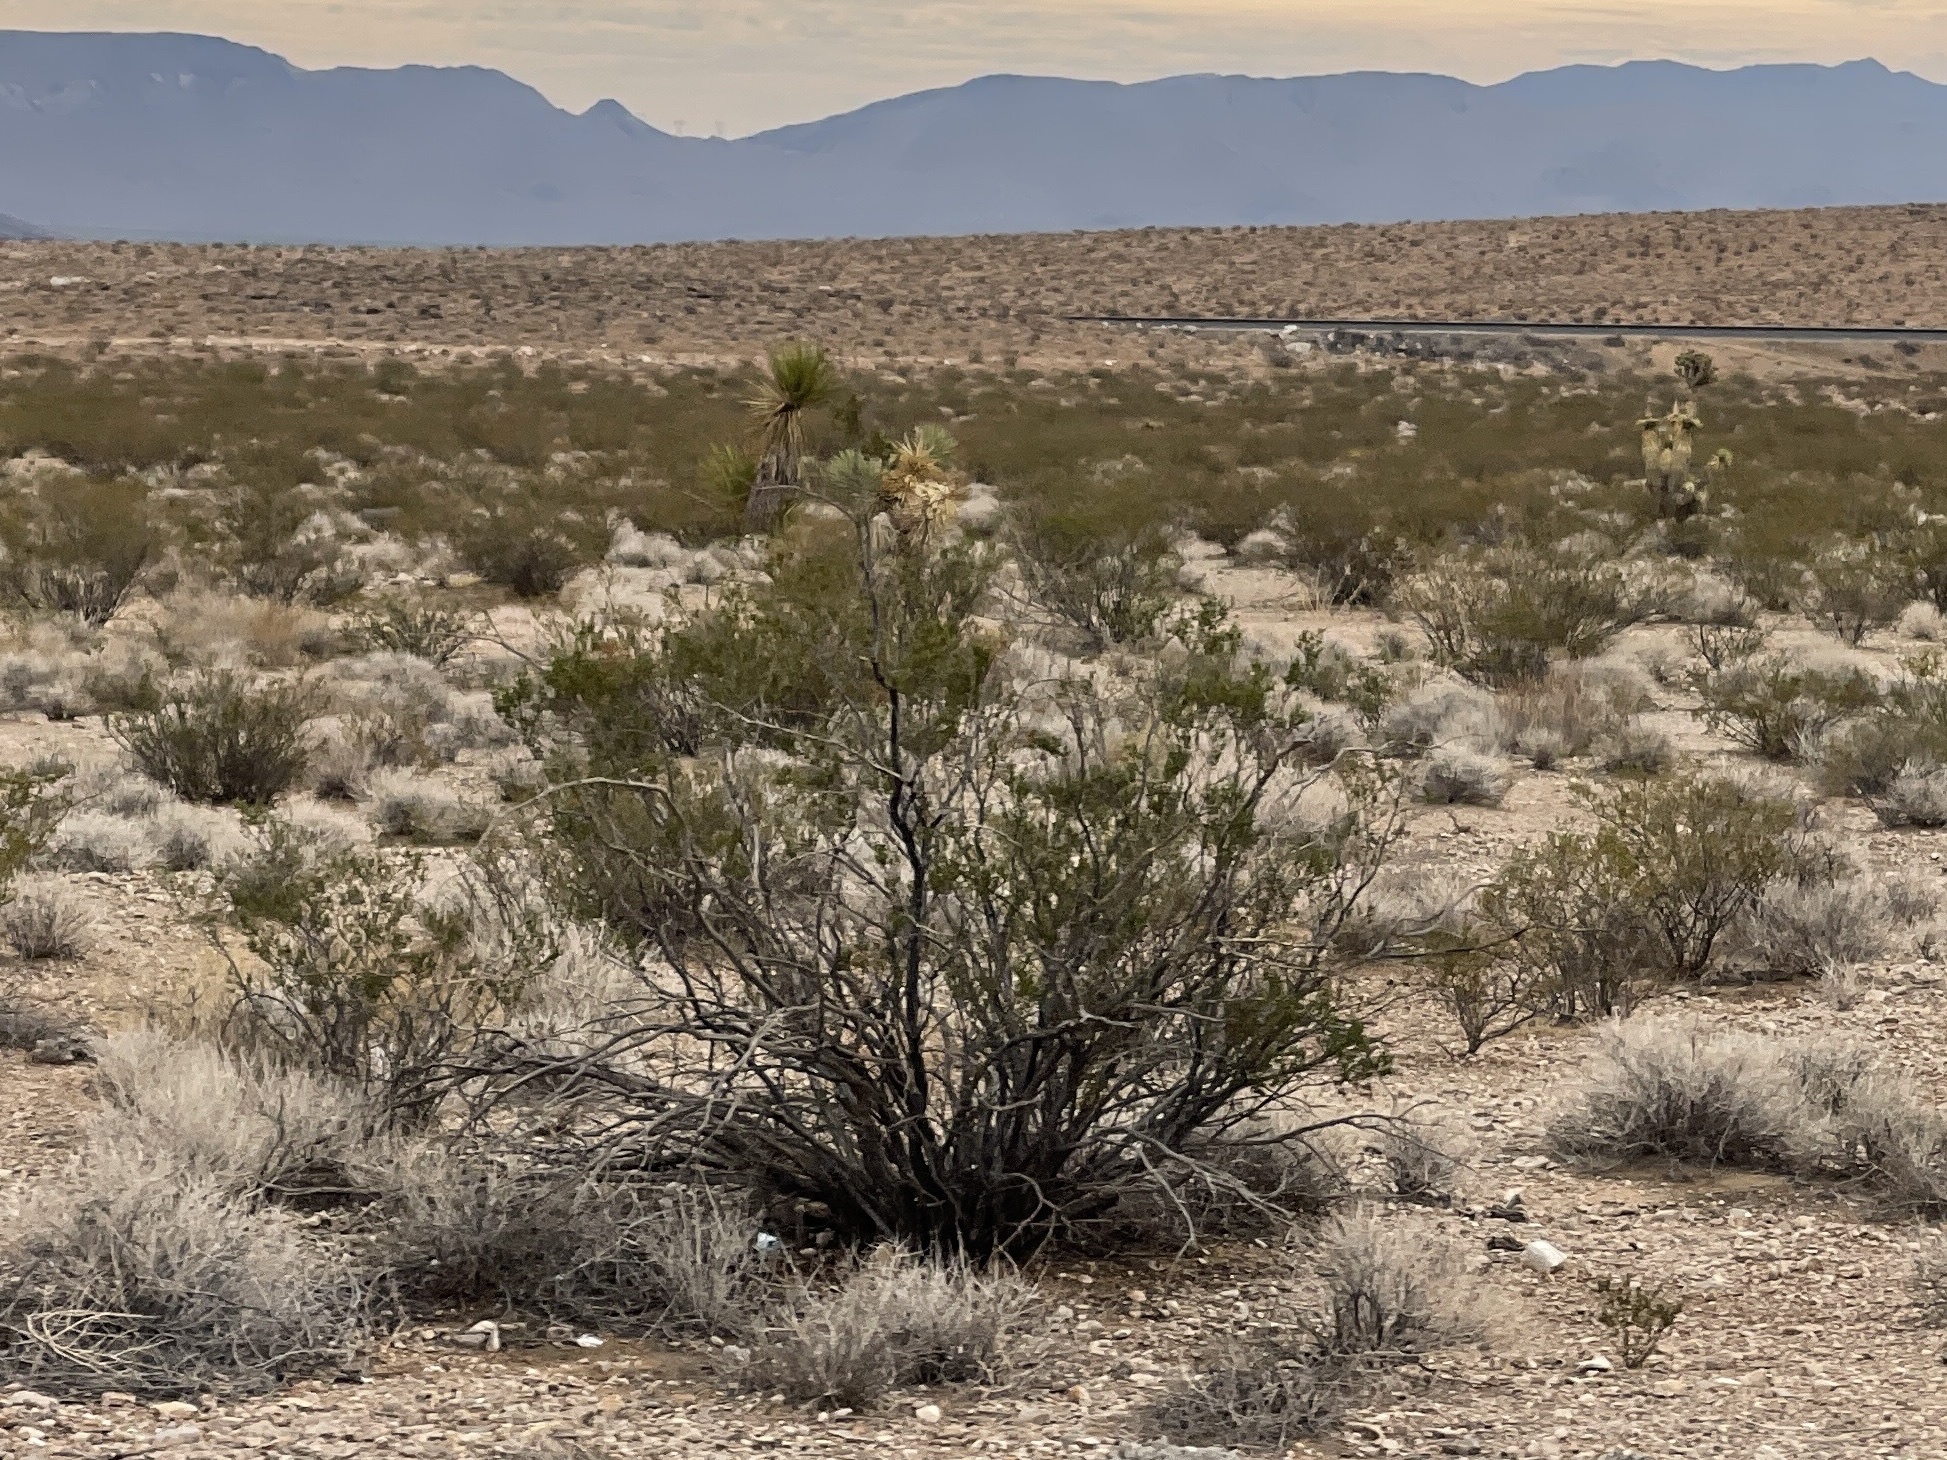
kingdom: Plantae
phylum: Tracheophyta
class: Magnoliopsida
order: Zygophyllales
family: Zygophyllaceae
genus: Larrea
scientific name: Larrea tridentata
